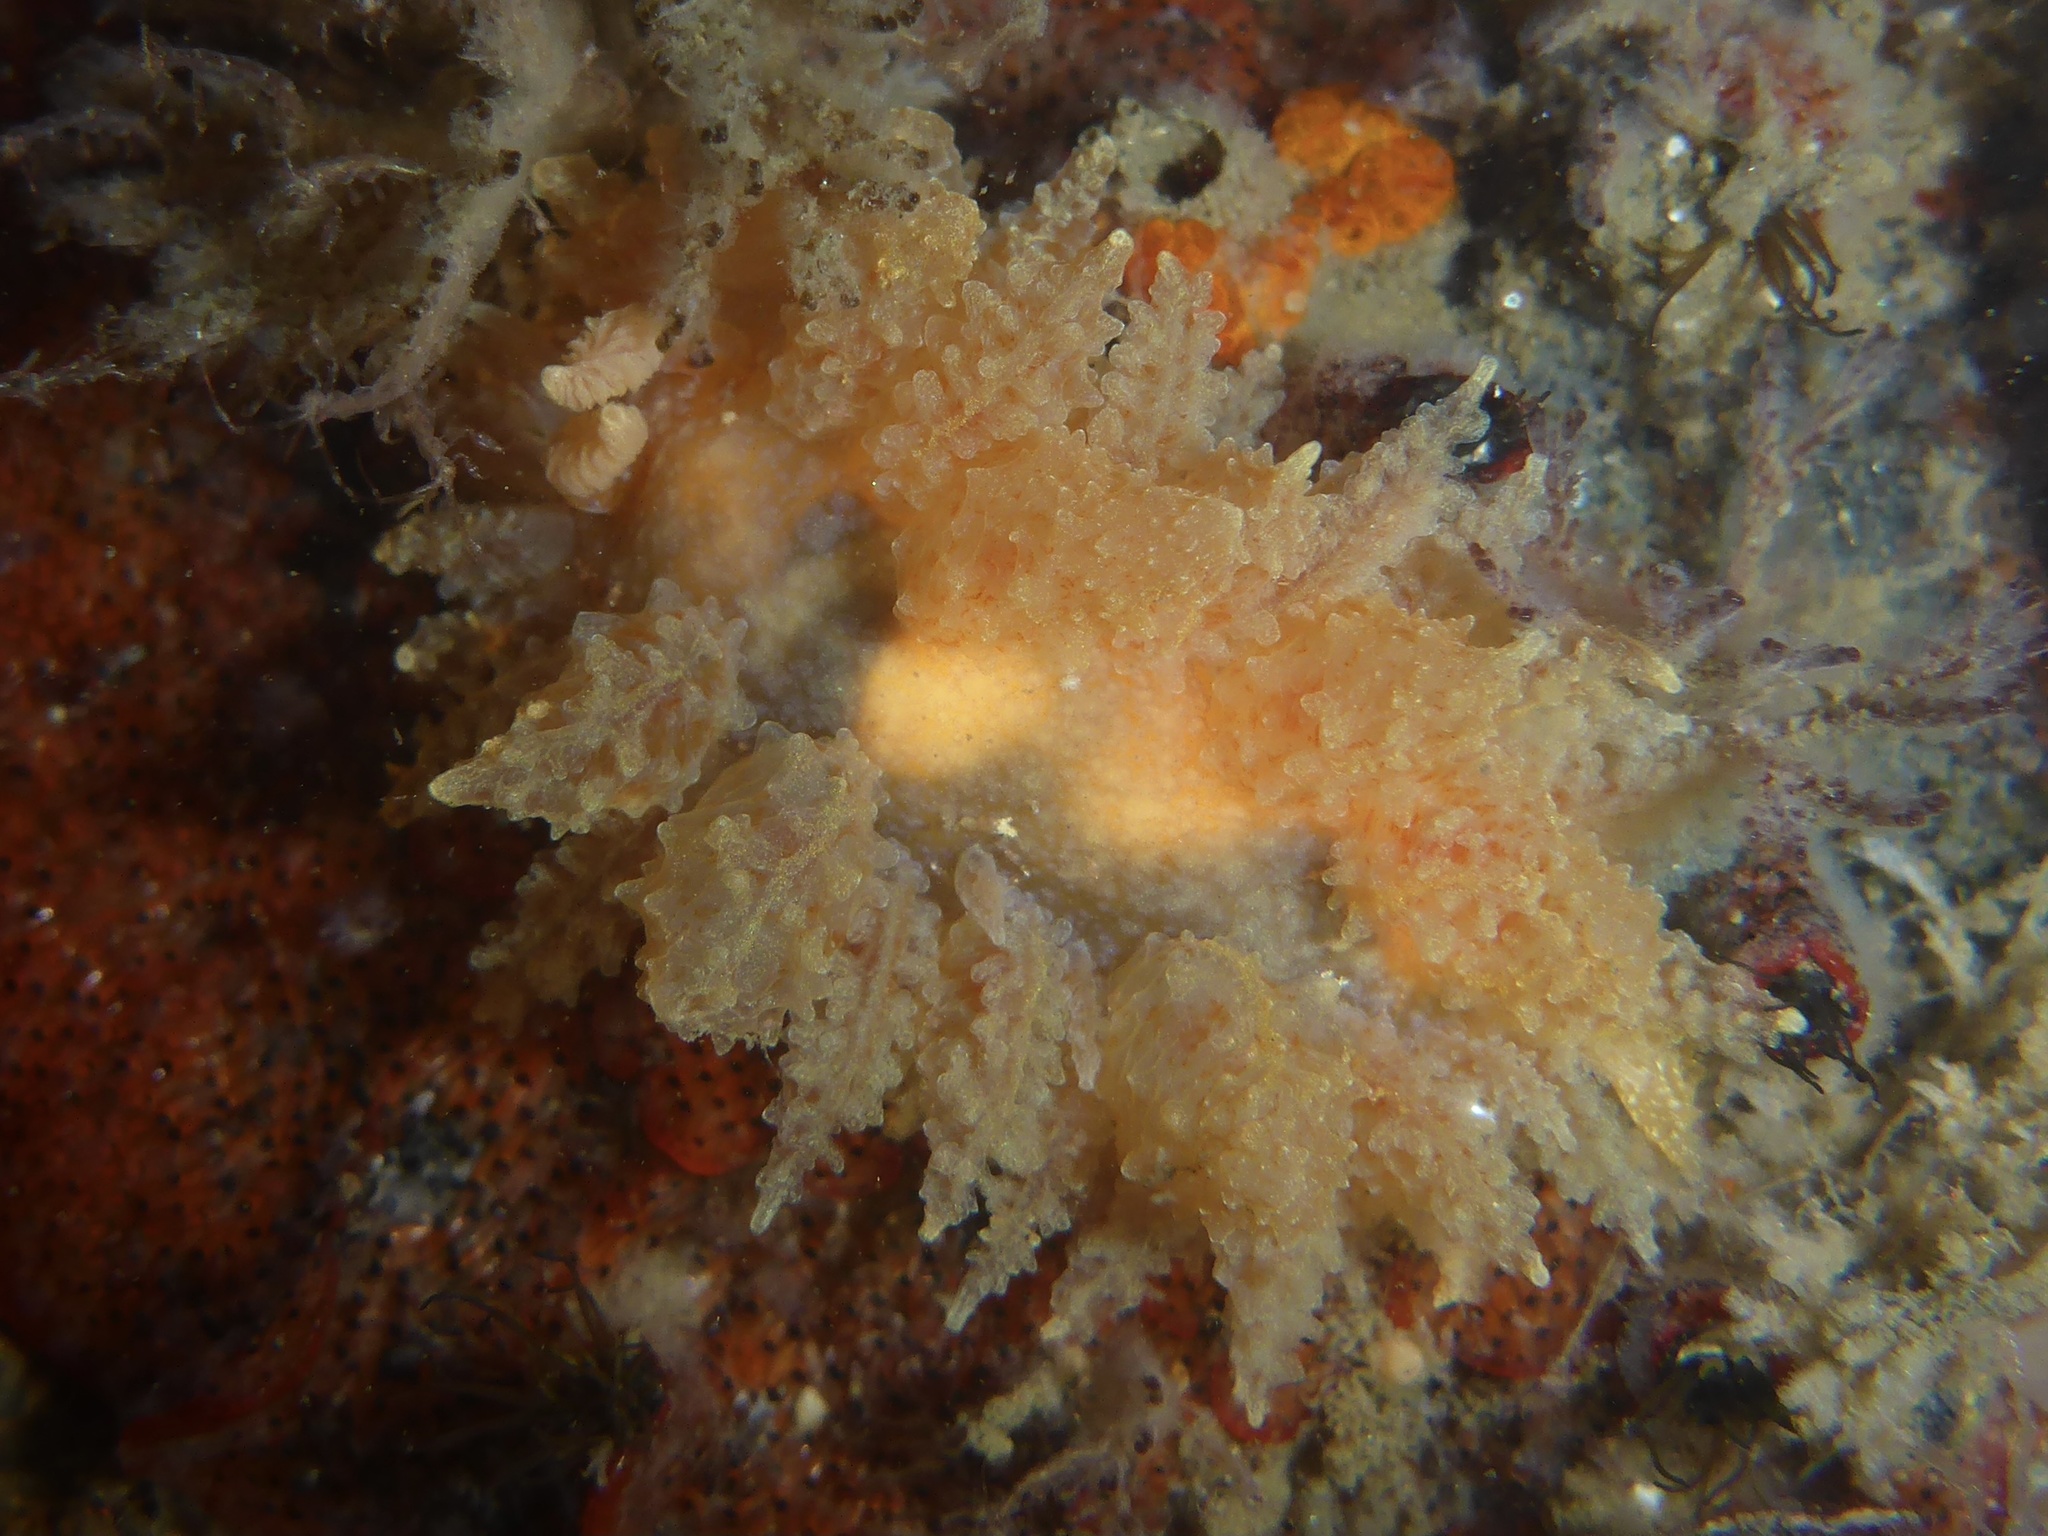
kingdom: Animalia
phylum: Mollusca
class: Gastropoda
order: Nudibranchia
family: Dironidae
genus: Dirona
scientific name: Dirona picta
